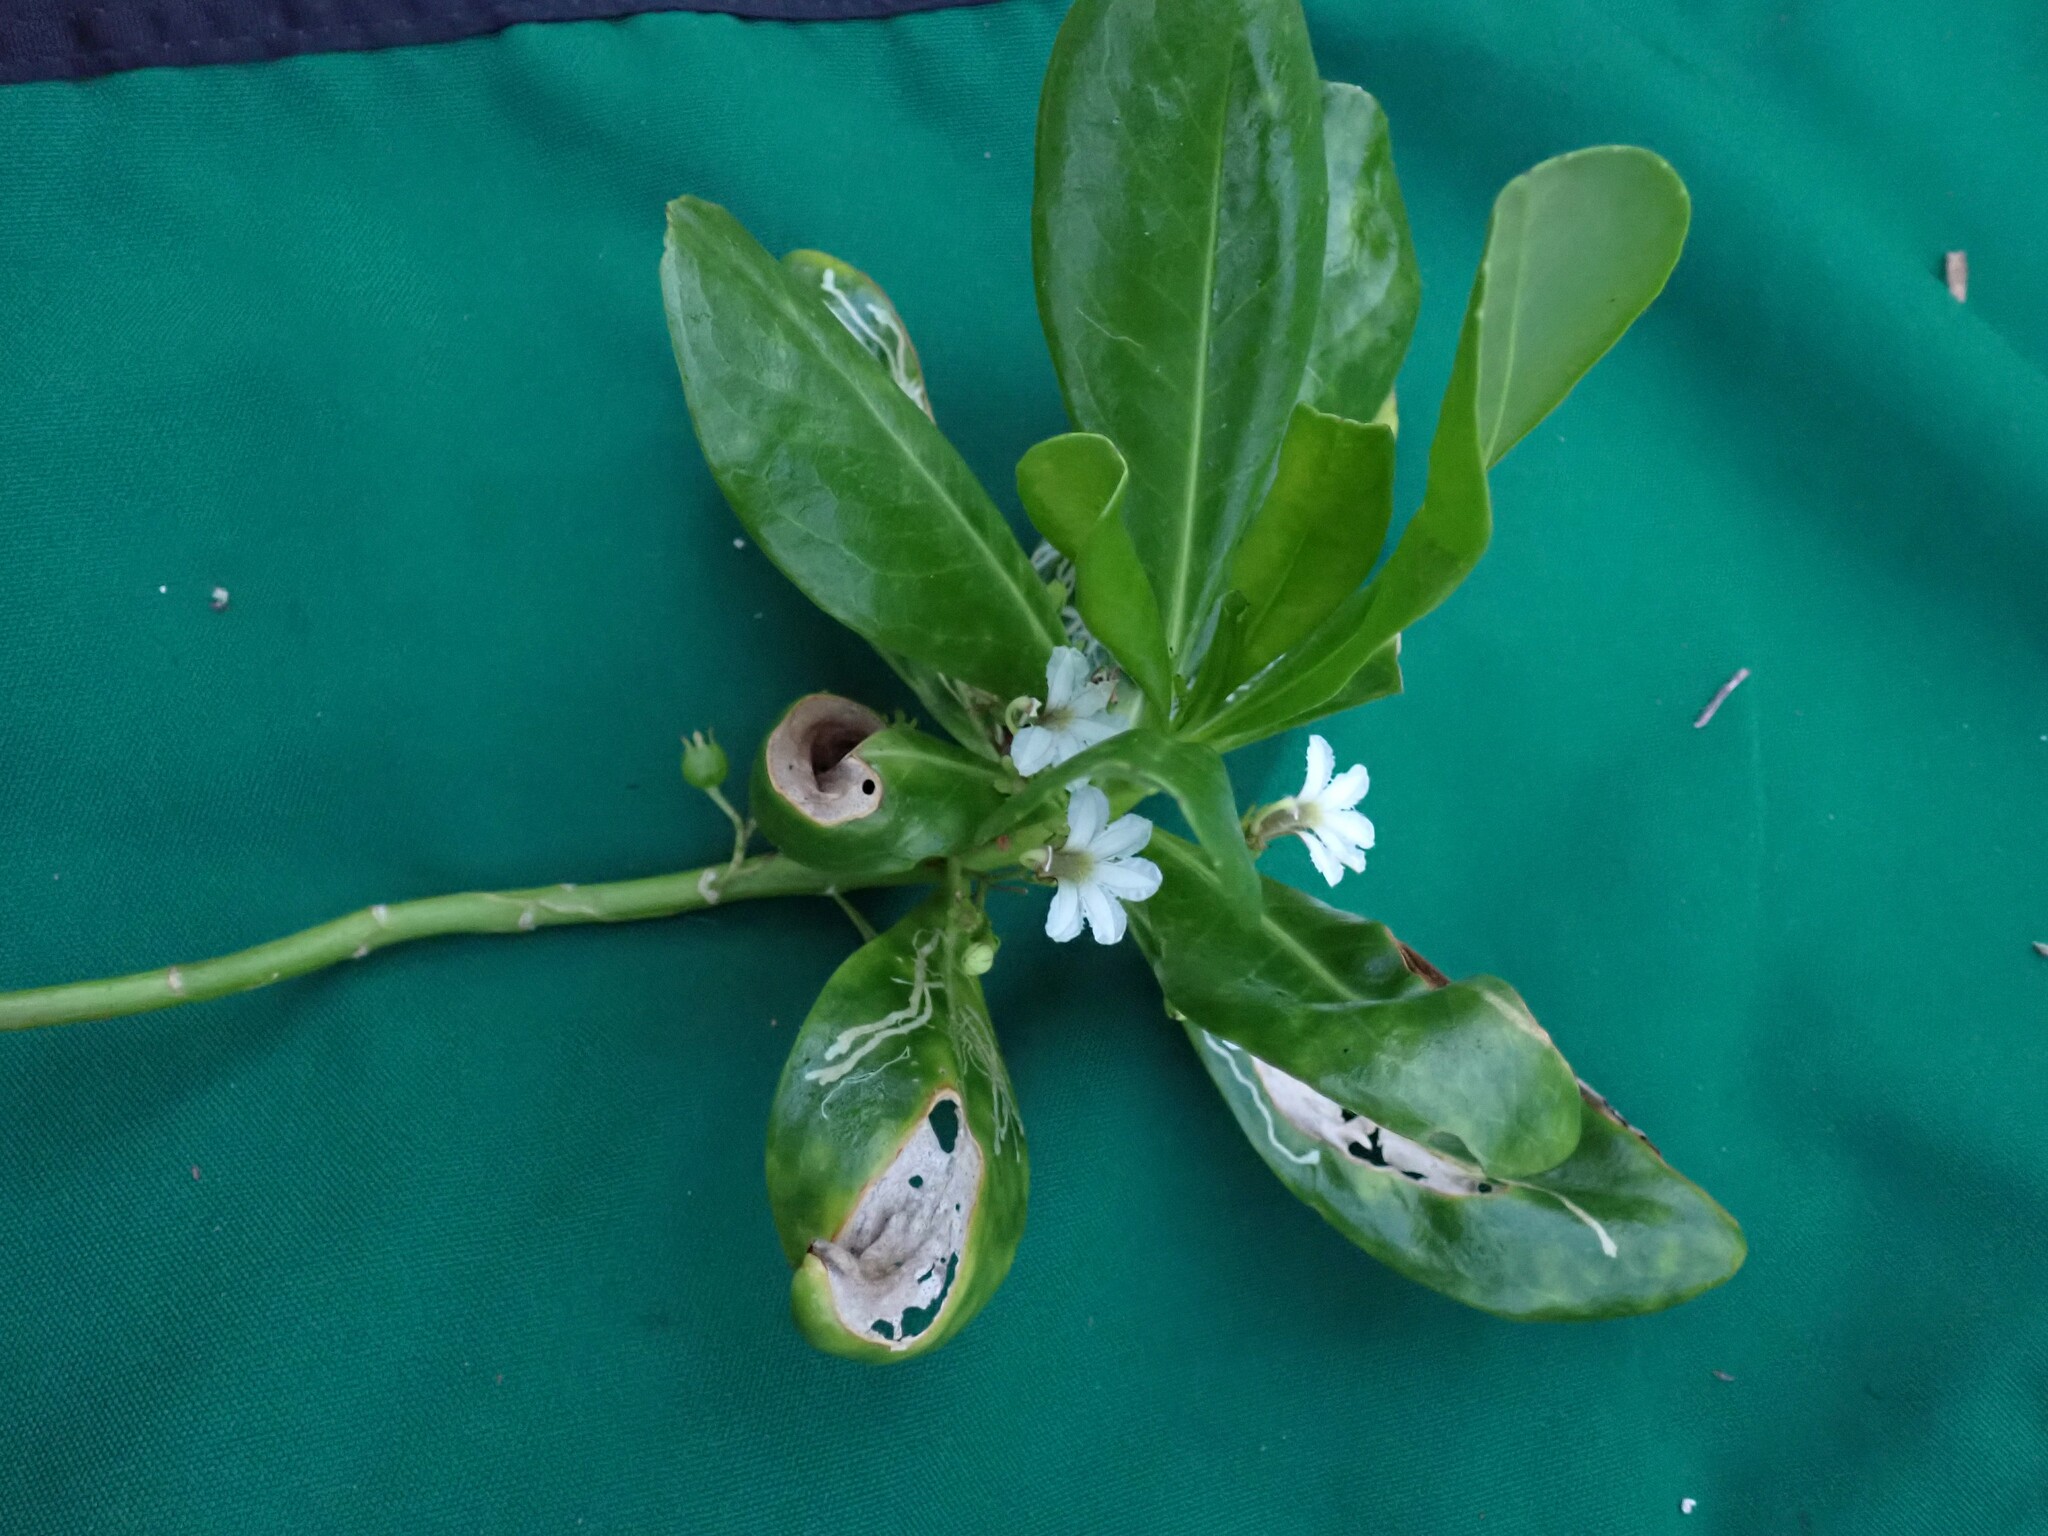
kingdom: Plantae
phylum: Tracheophyta
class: Magnoliopsida
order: Asterales
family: Goodeniaceae
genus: Scaevola
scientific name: Scaevola taccada
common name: Sea lettucetree
